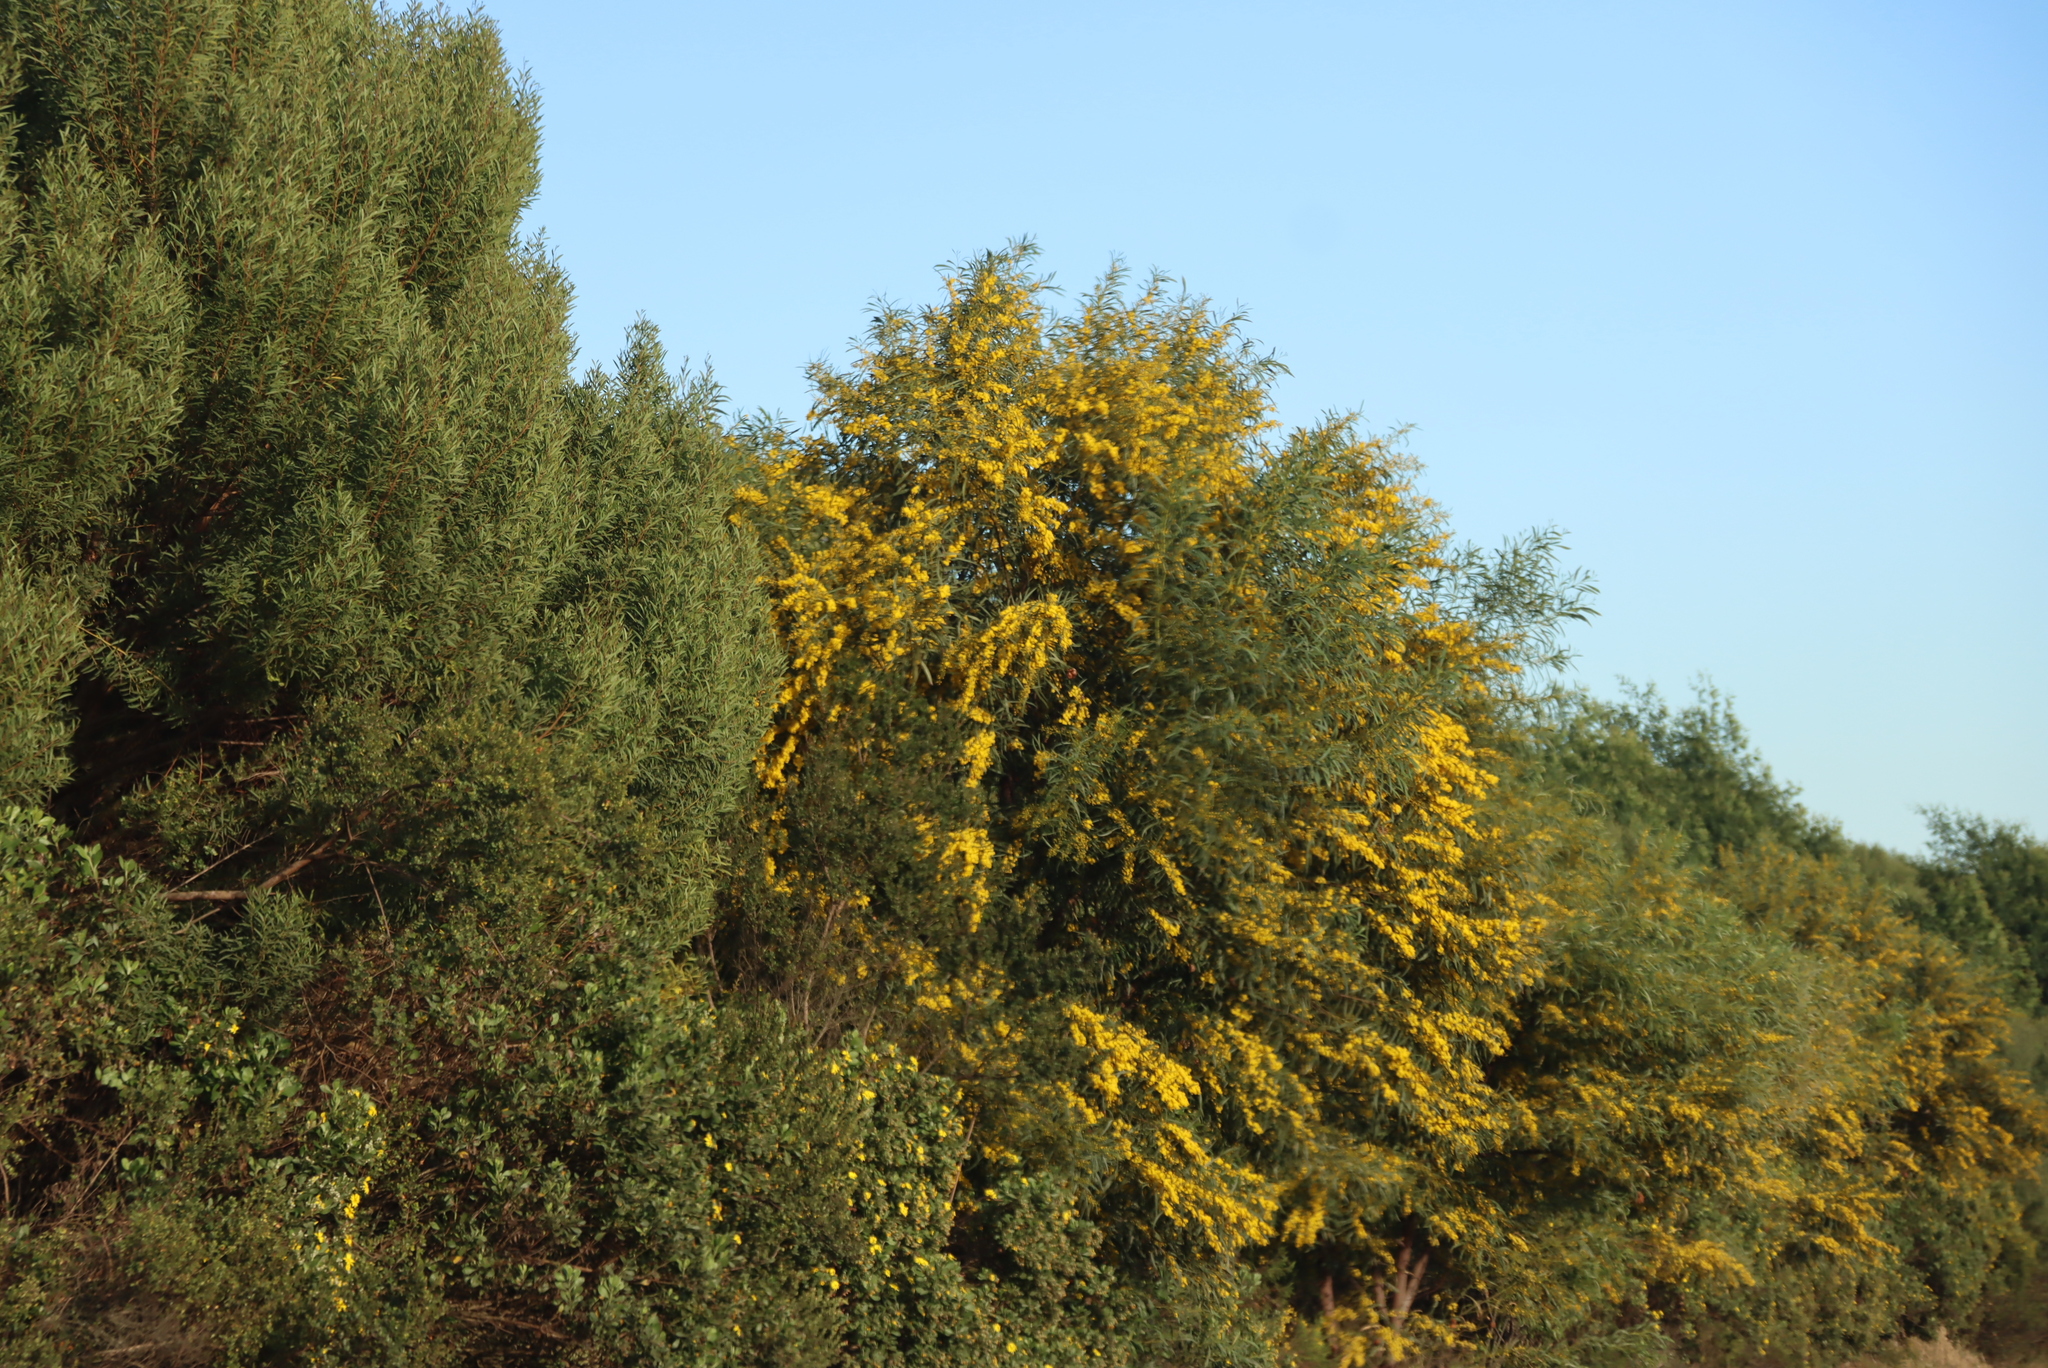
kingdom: Plantae
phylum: Tracheophyta
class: Magnoliopsida
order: Fabales
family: Fabaceae
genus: Acacia
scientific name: Acacia saligna
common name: Orange wattle
